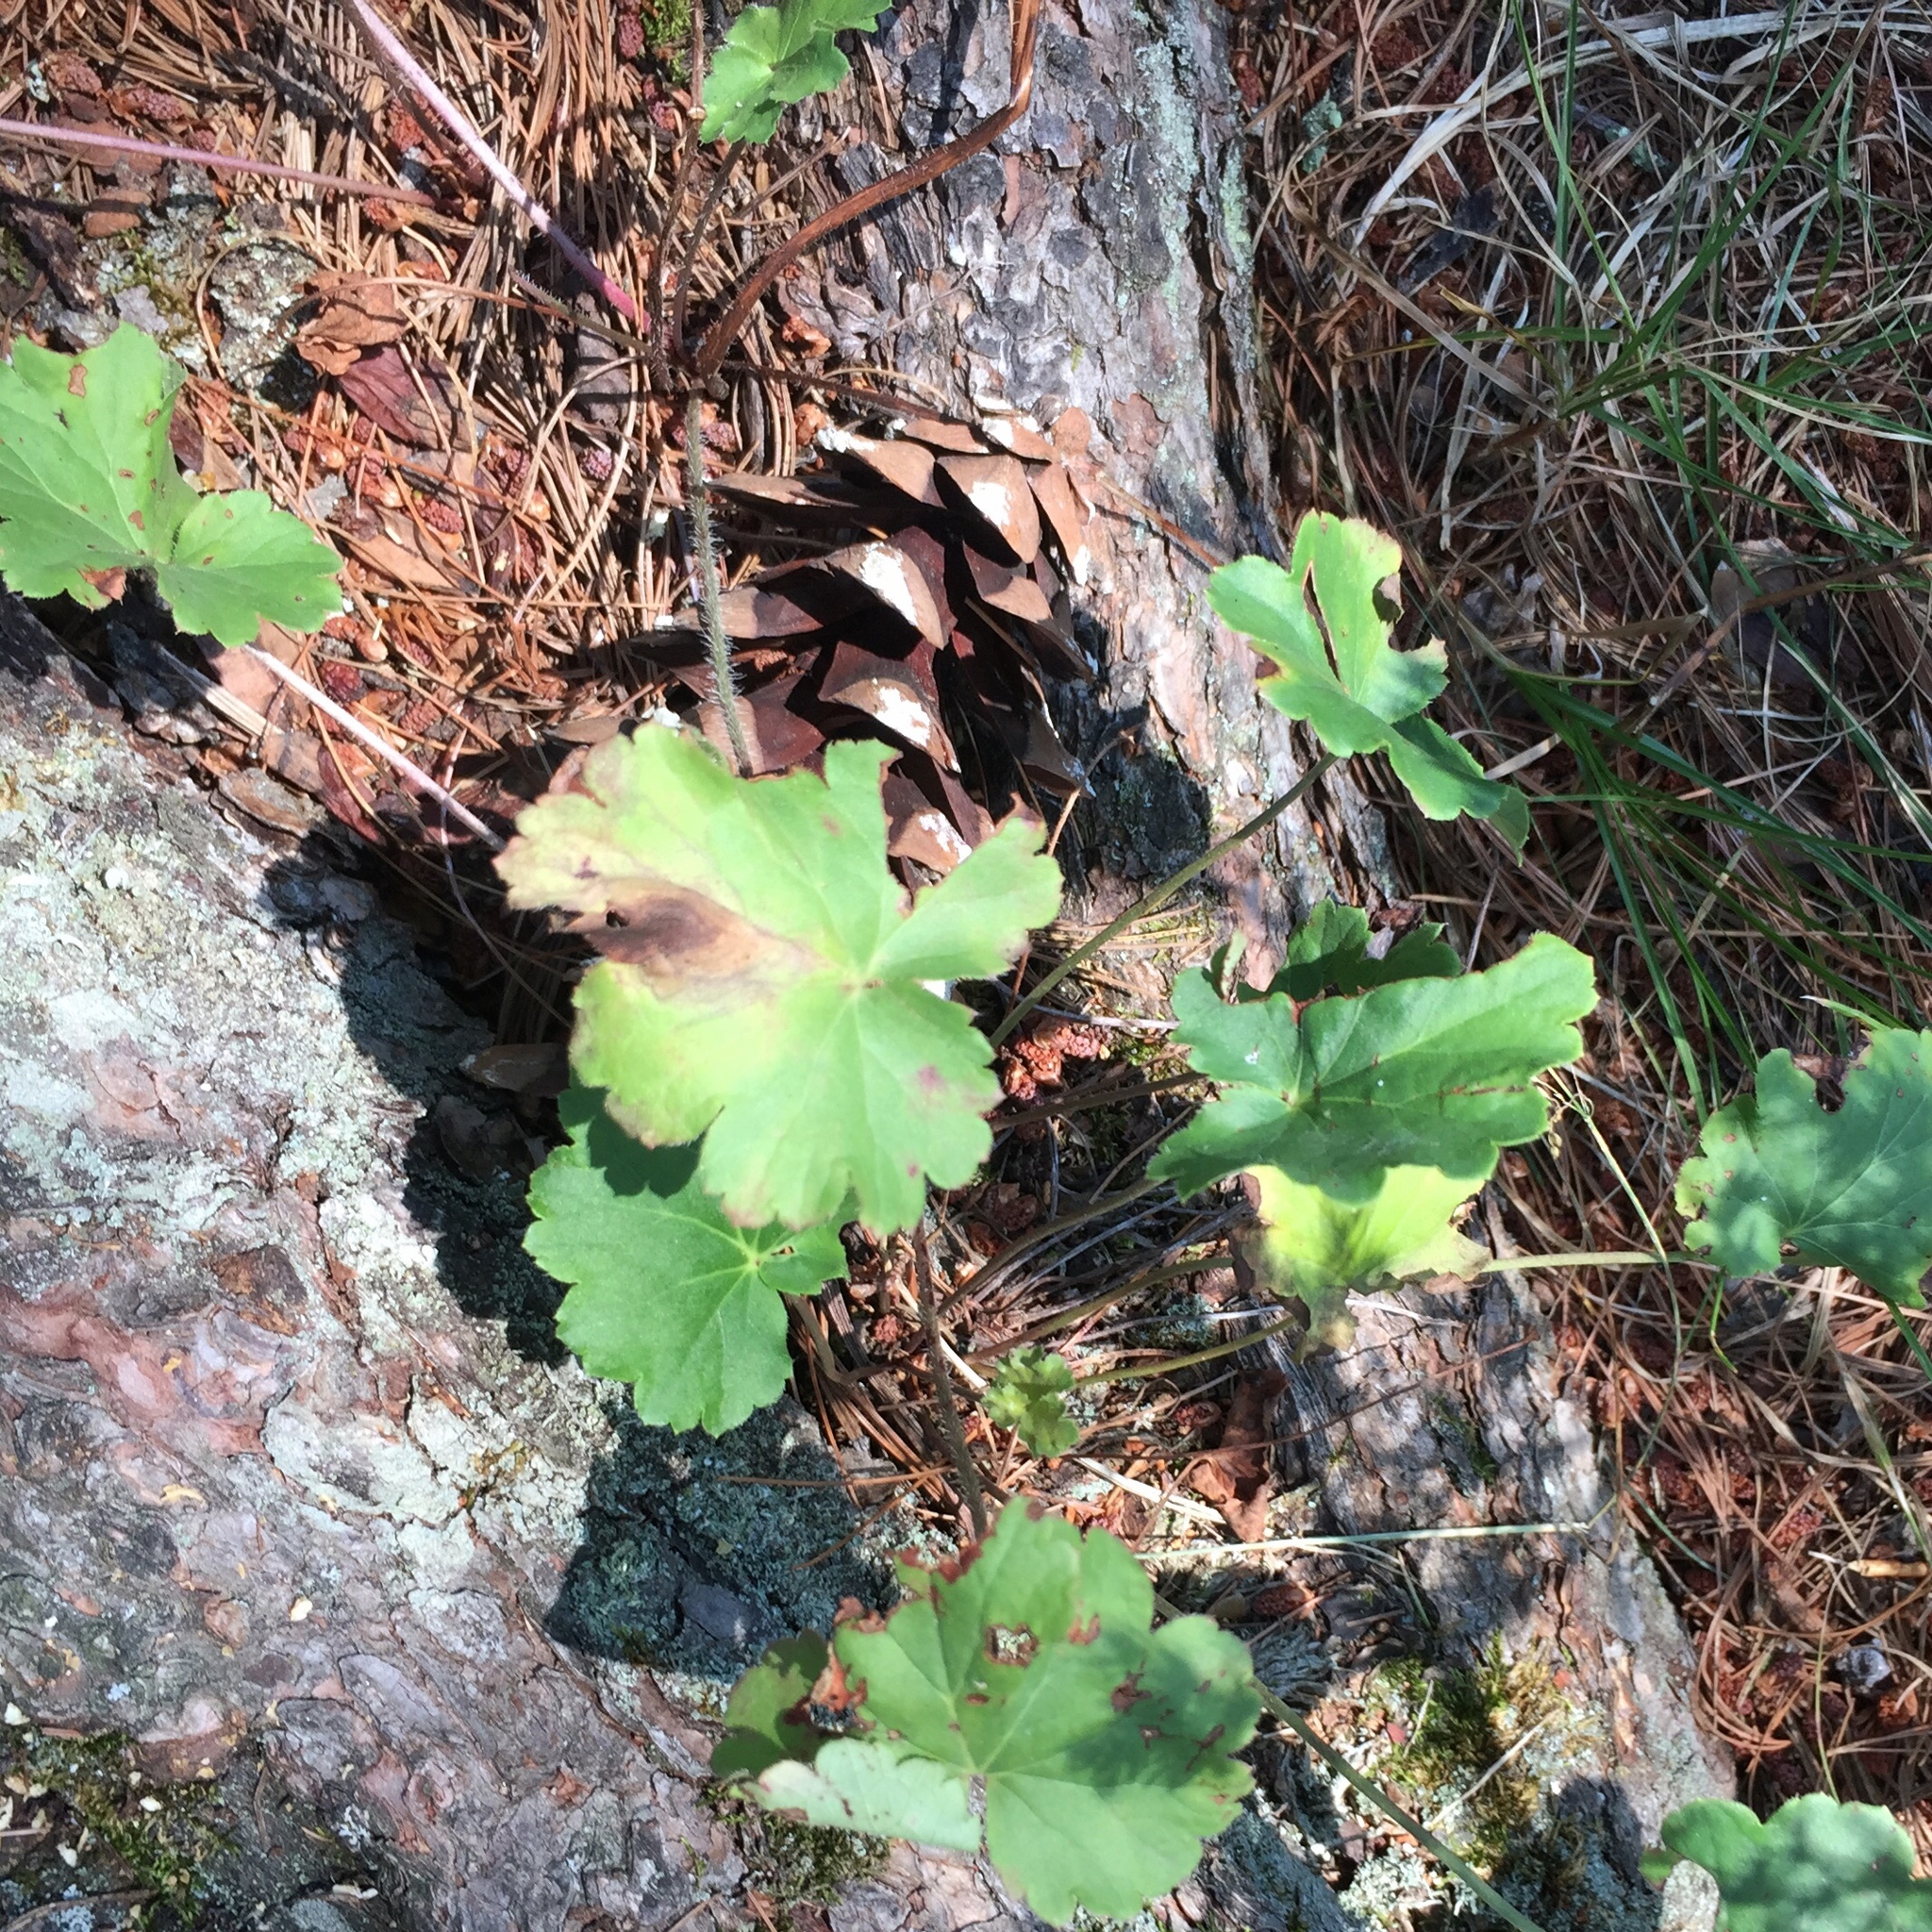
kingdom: Plantae
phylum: Tracheophyta
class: Magnoliopsida
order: Saxifragales
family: Saxifragaceae
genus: Heuchera
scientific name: Heuchera richardsonii
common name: Richardson's alumroot
